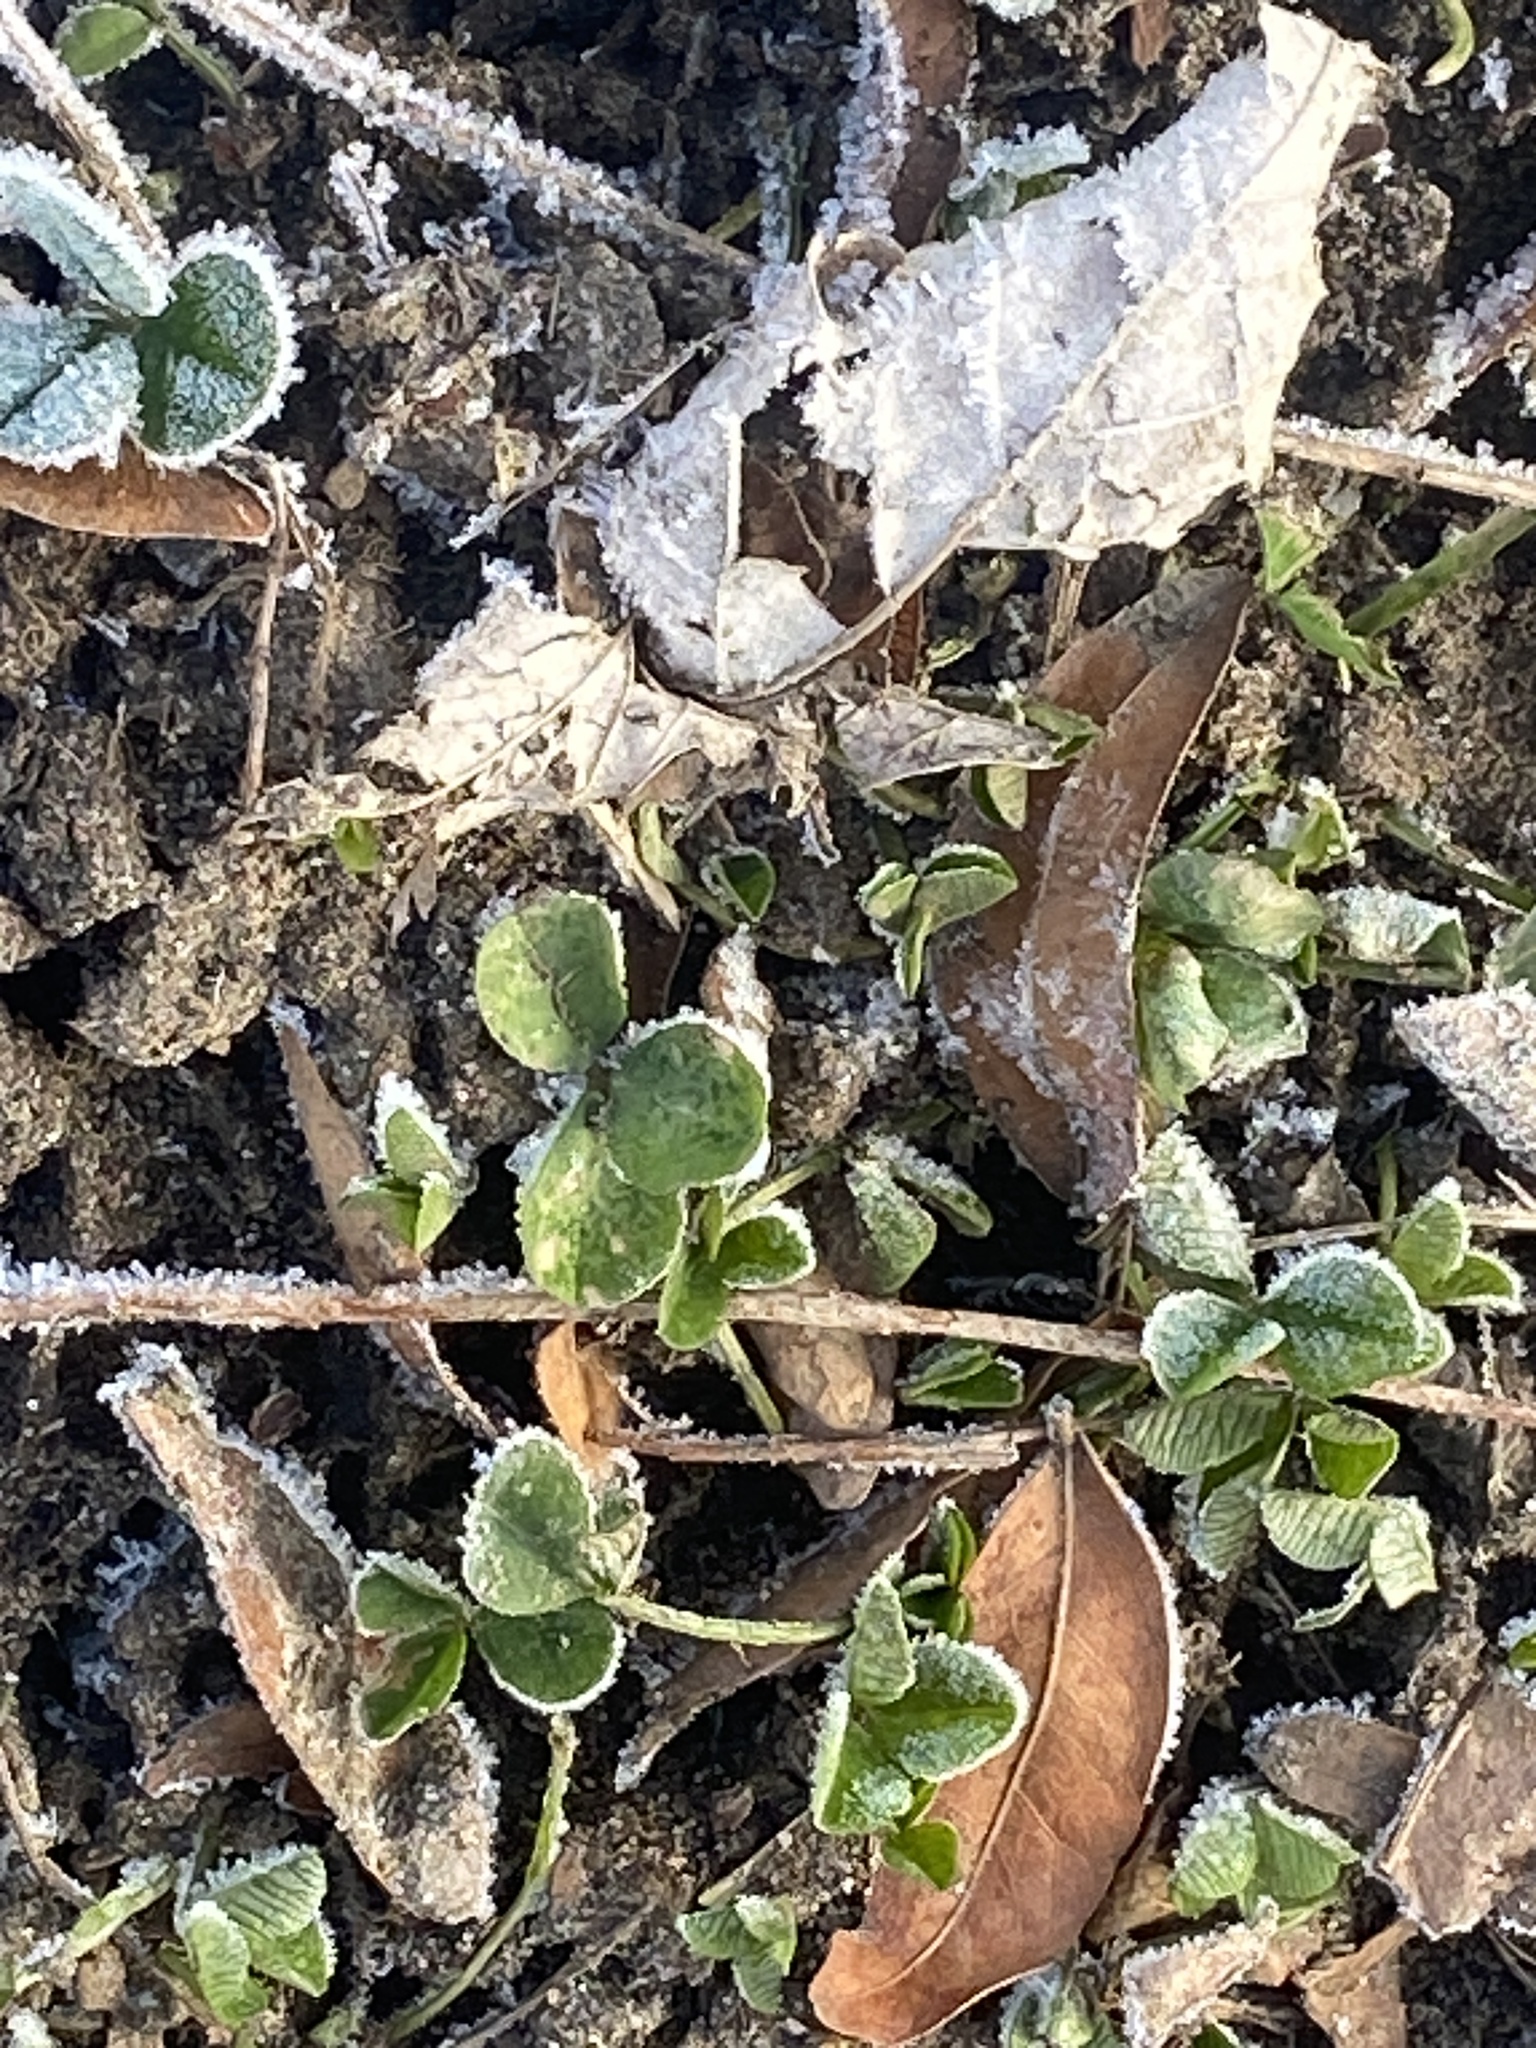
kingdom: Plantae
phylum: Tracheophyta
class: Magnoliopsida
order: Fabales
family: Fabaceae
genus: Trifolium
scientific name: Trifolium repens
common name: White clover
